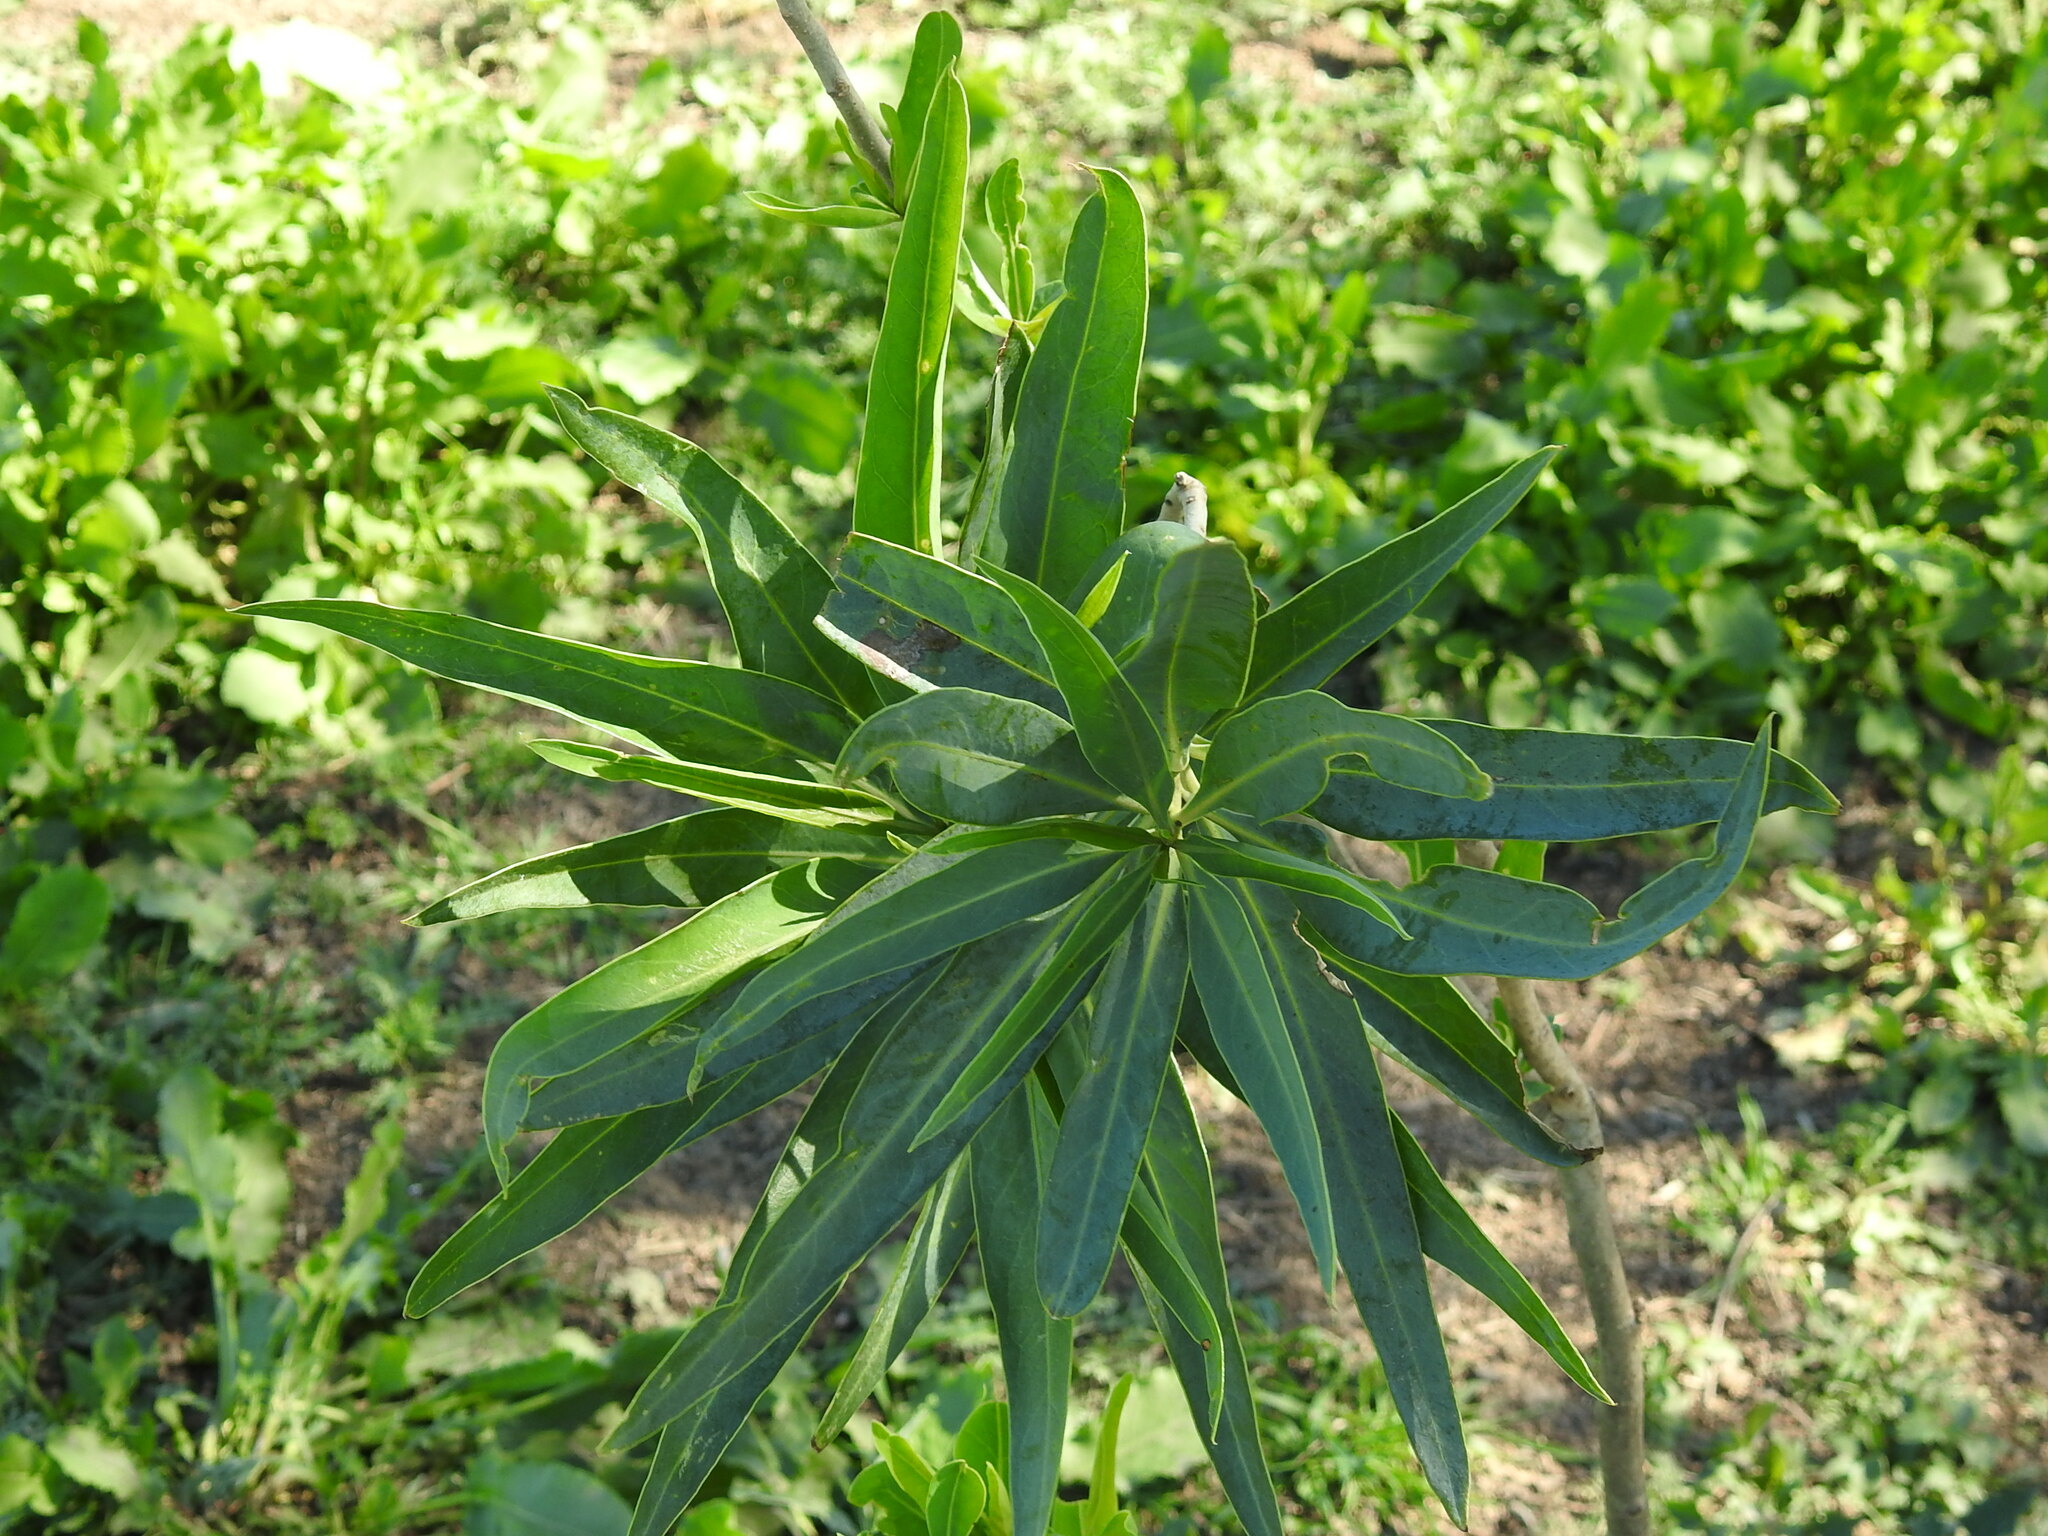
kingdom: Plantae
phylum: Tracheophyta
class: Magnoliopsida
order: Solanales
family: Solanaceae
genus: Solanum
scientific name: Solanum glaucophyllum
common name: Waxyleaf nightshade
